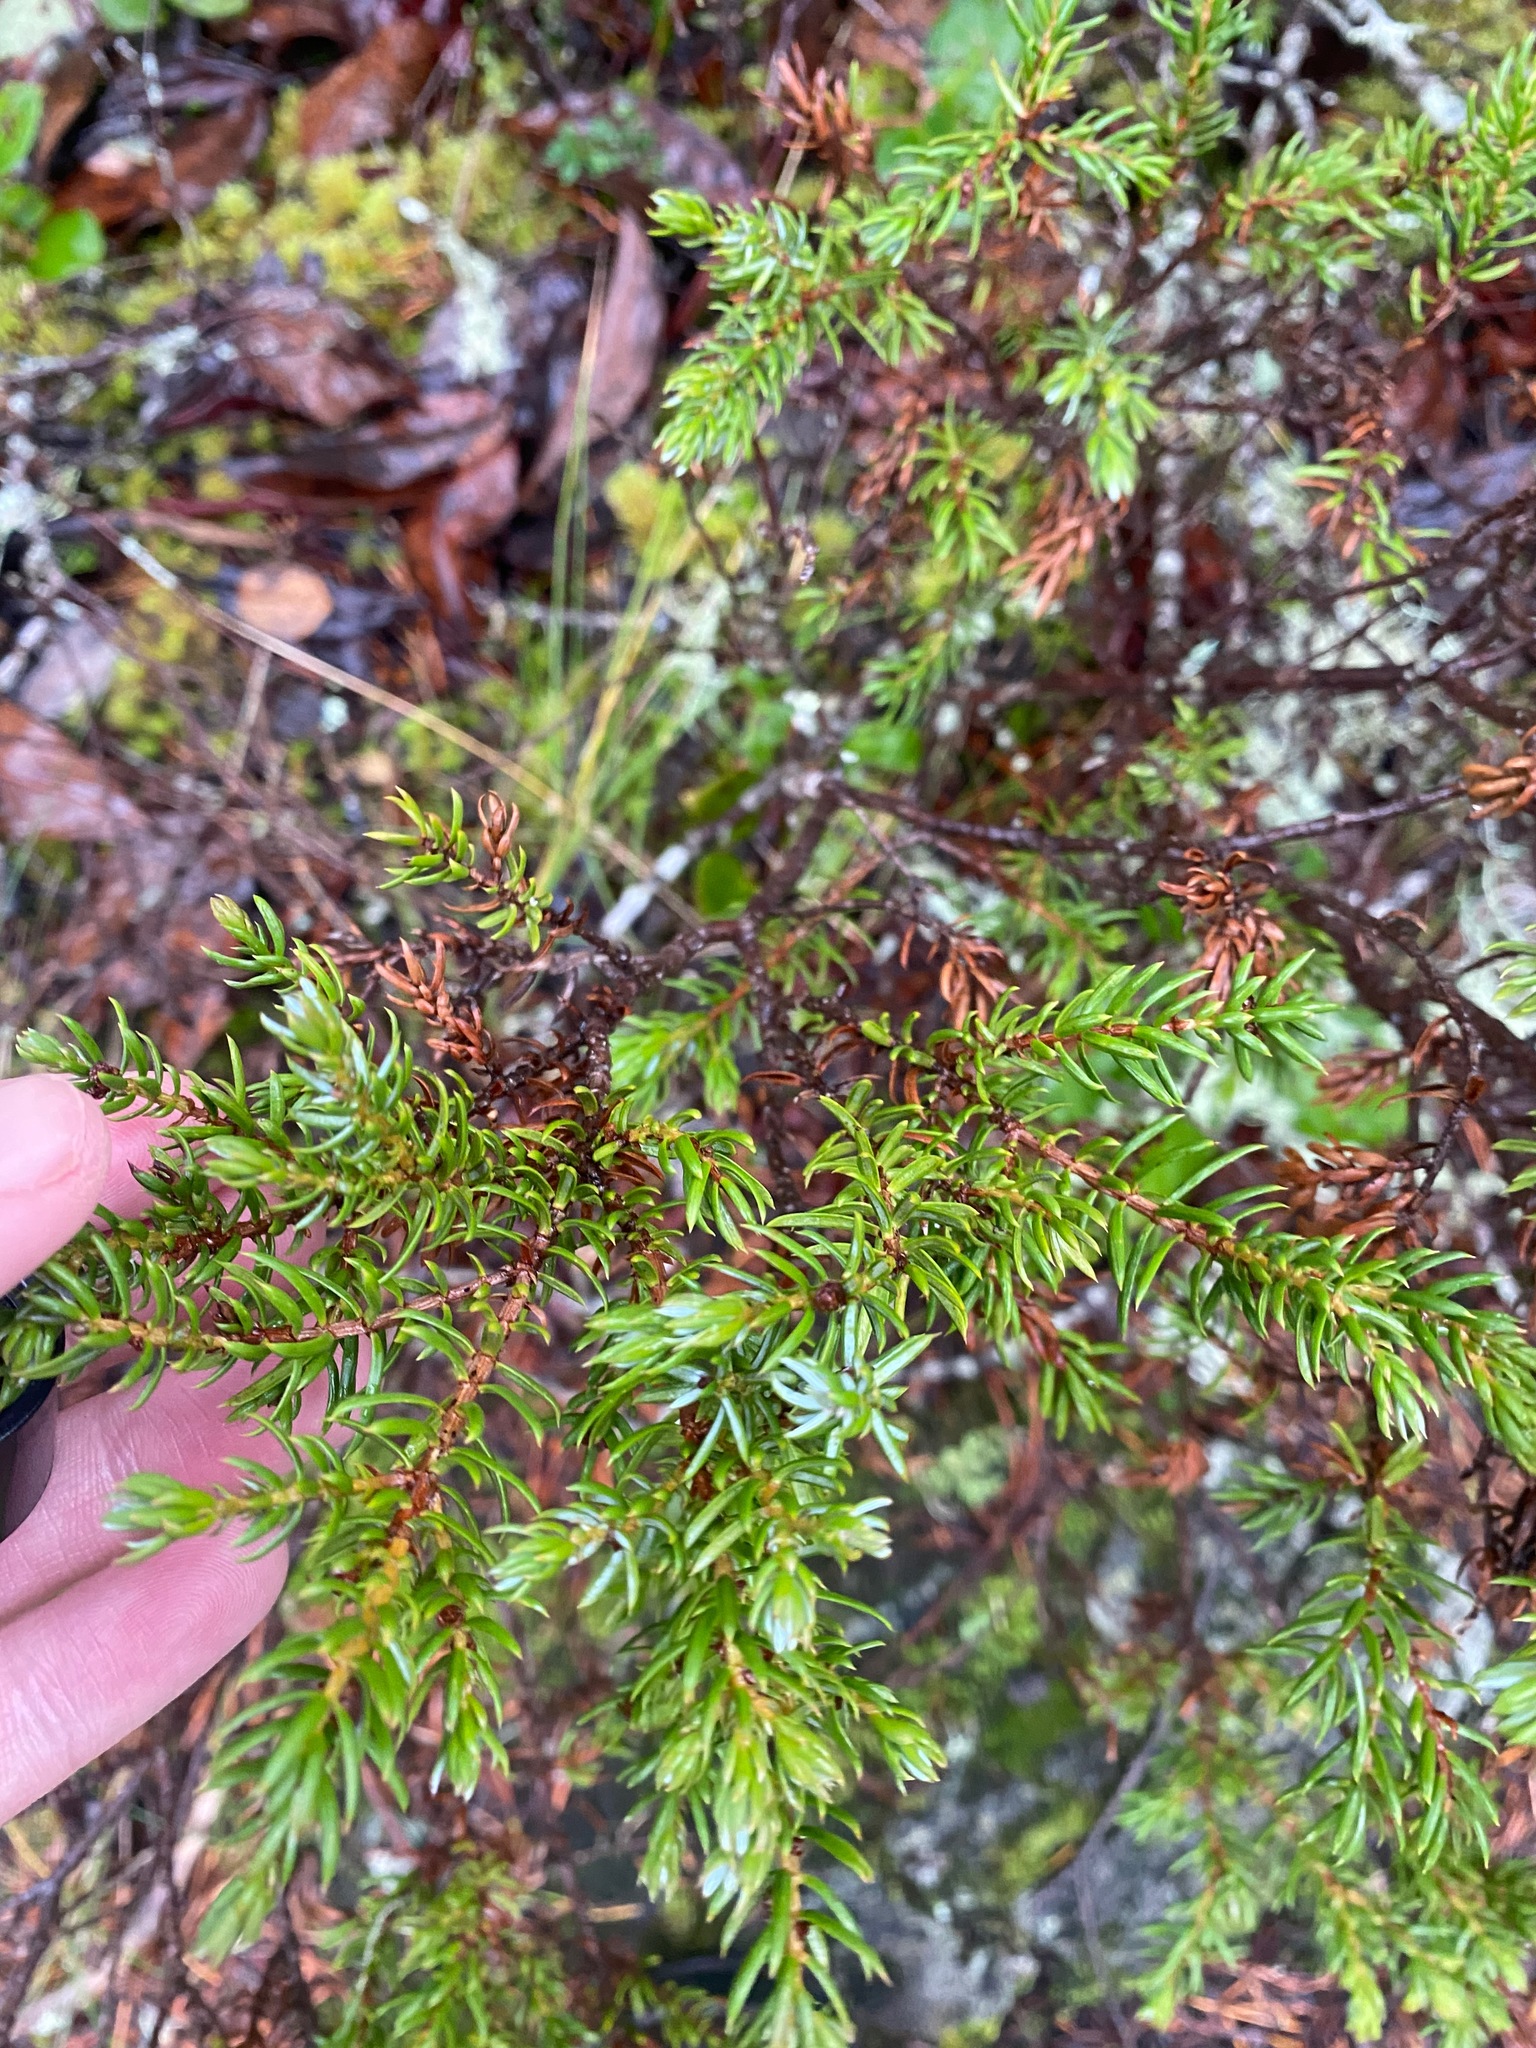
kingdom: Plantae
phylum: Tracheophyta
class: Pinopsida
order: Pinales
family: Cupressaceae
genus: Juniperus
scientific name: Juniperus communis
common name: Common juniper
